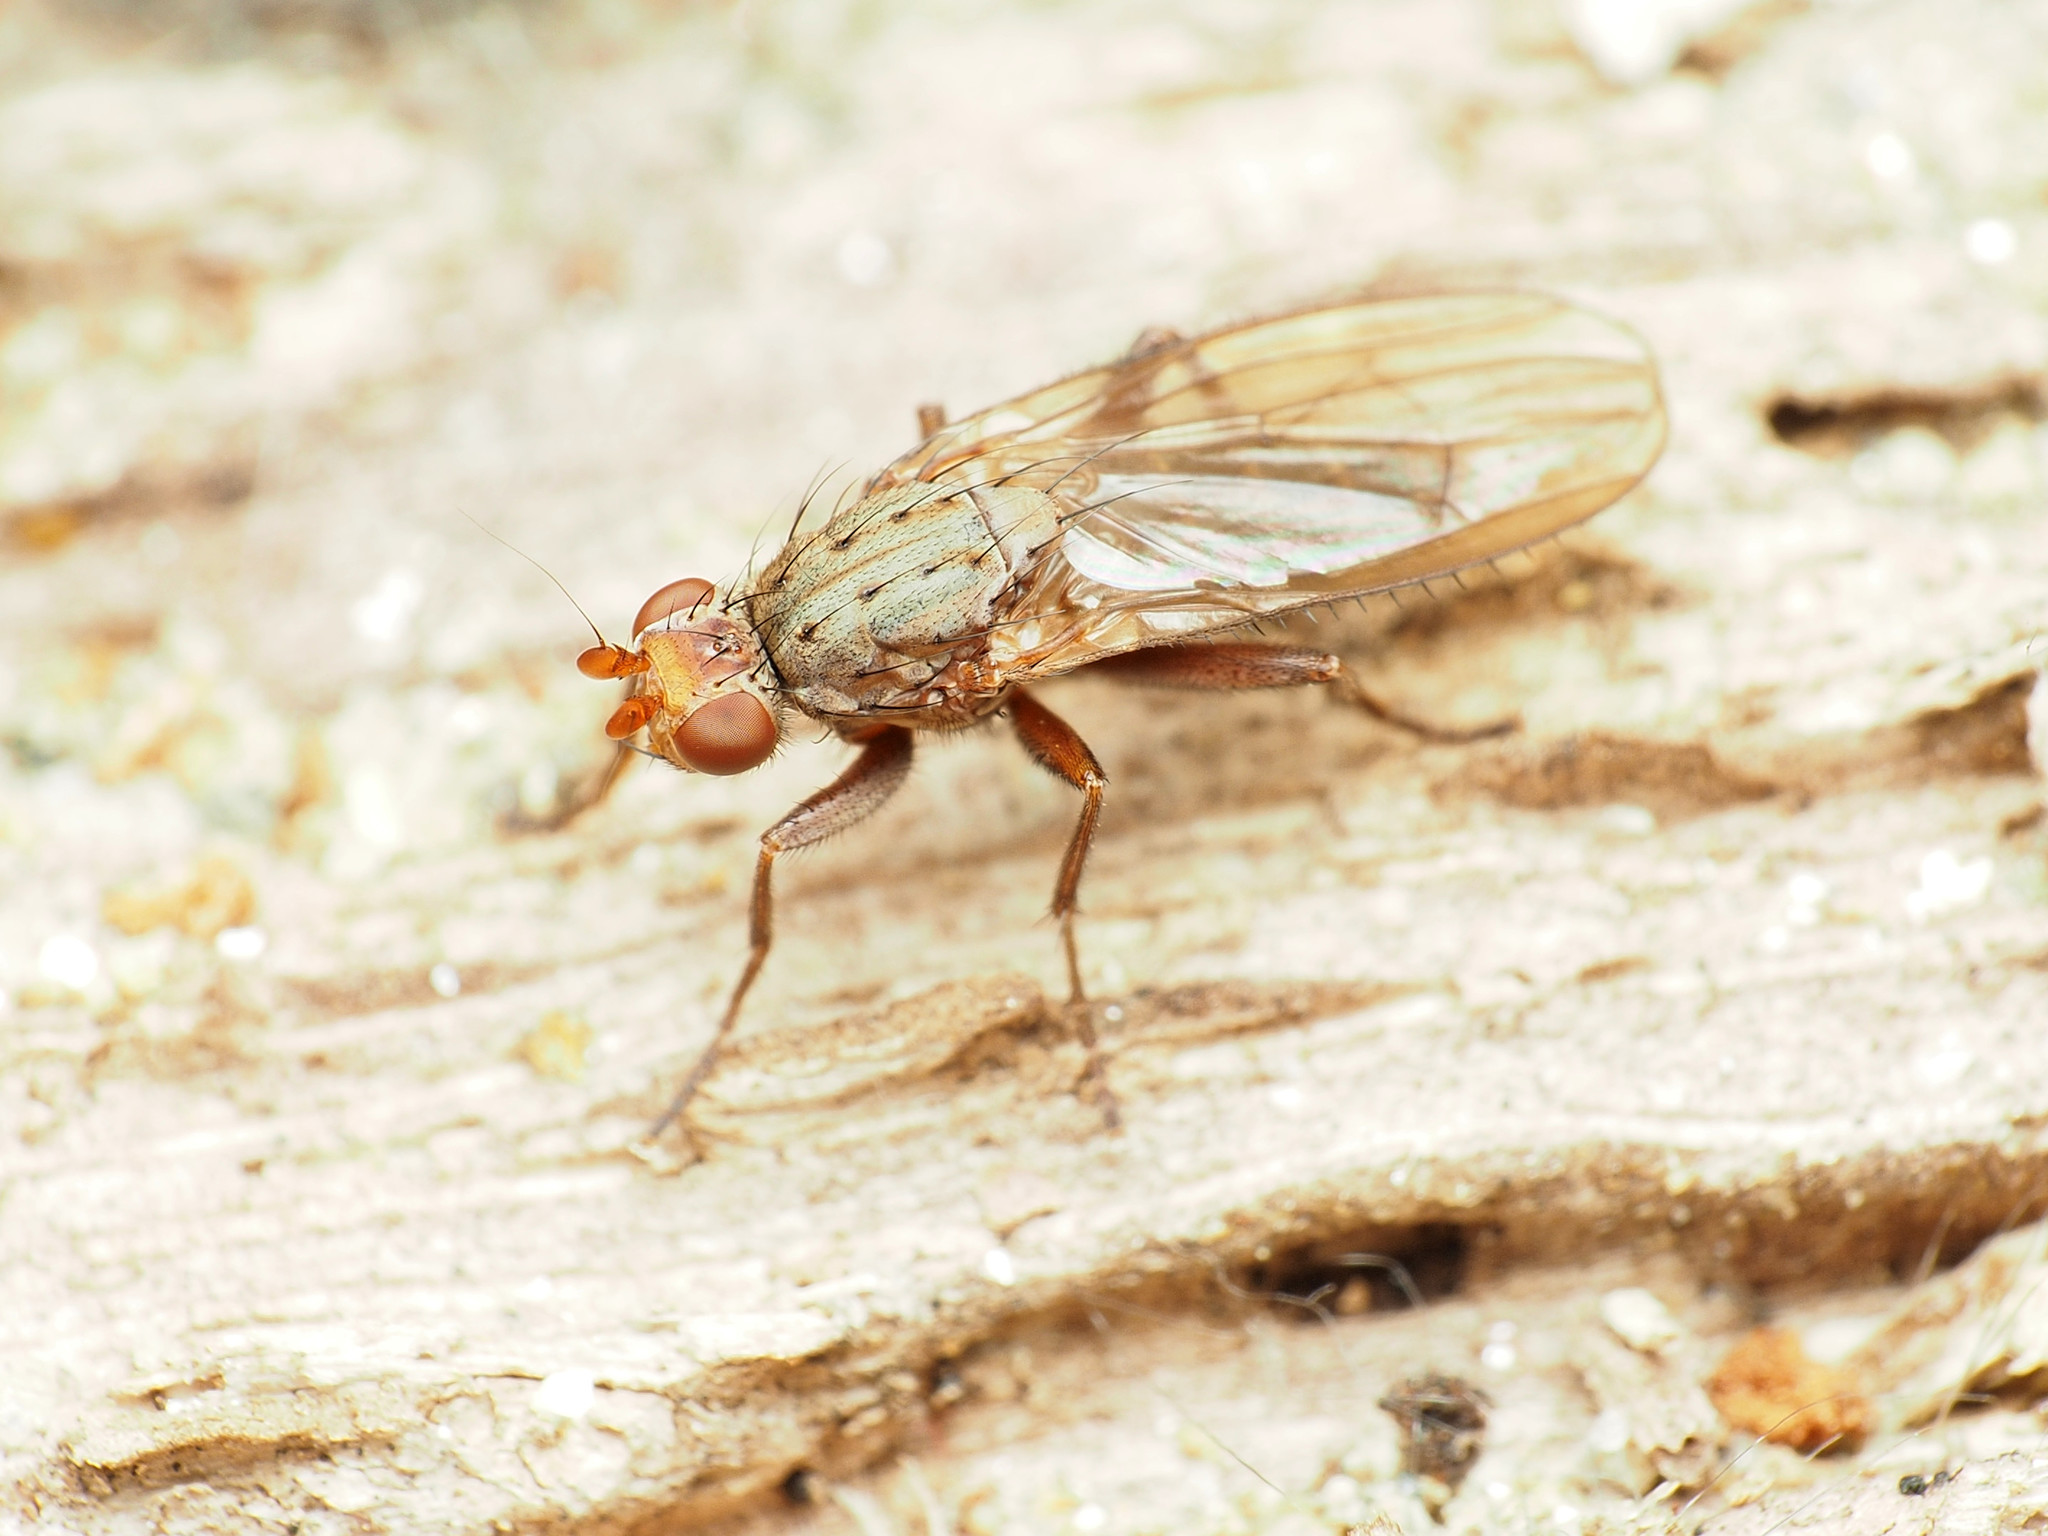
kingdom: Animalia
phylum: Arthropoda
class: Insecta
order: Diptera
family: Heleomyzidae
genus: Amoebaleria
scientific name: Amoebaleria defessa
